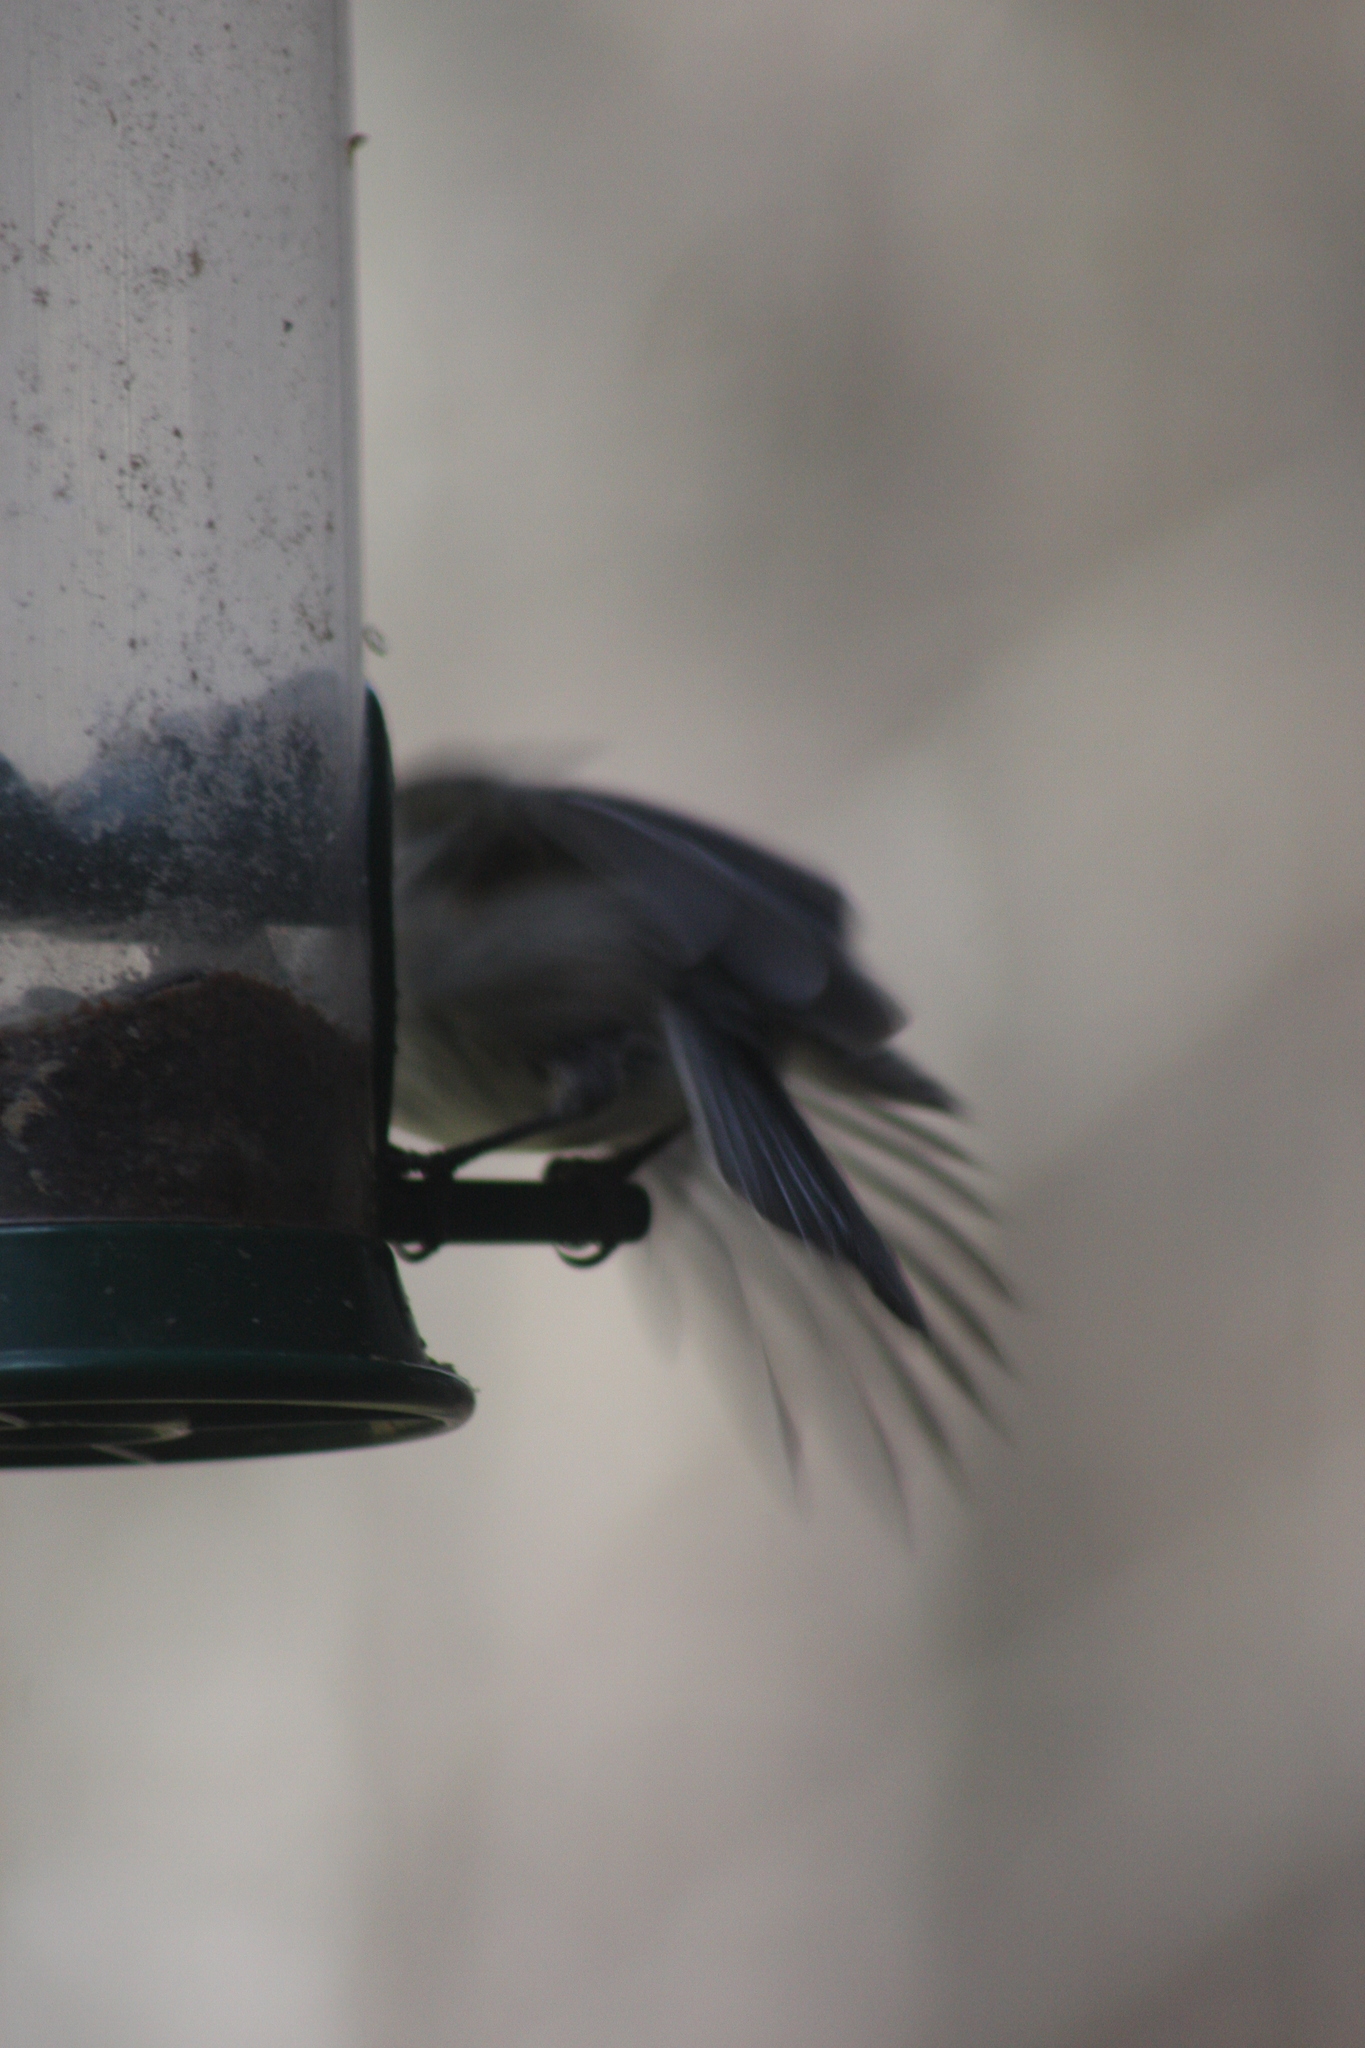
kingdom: Animalia
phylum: Chordata
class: Aves
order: Passeriformes
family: Paridae
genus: Poecile
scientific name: Poecile atricapillus
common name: Black-capped chickadee
